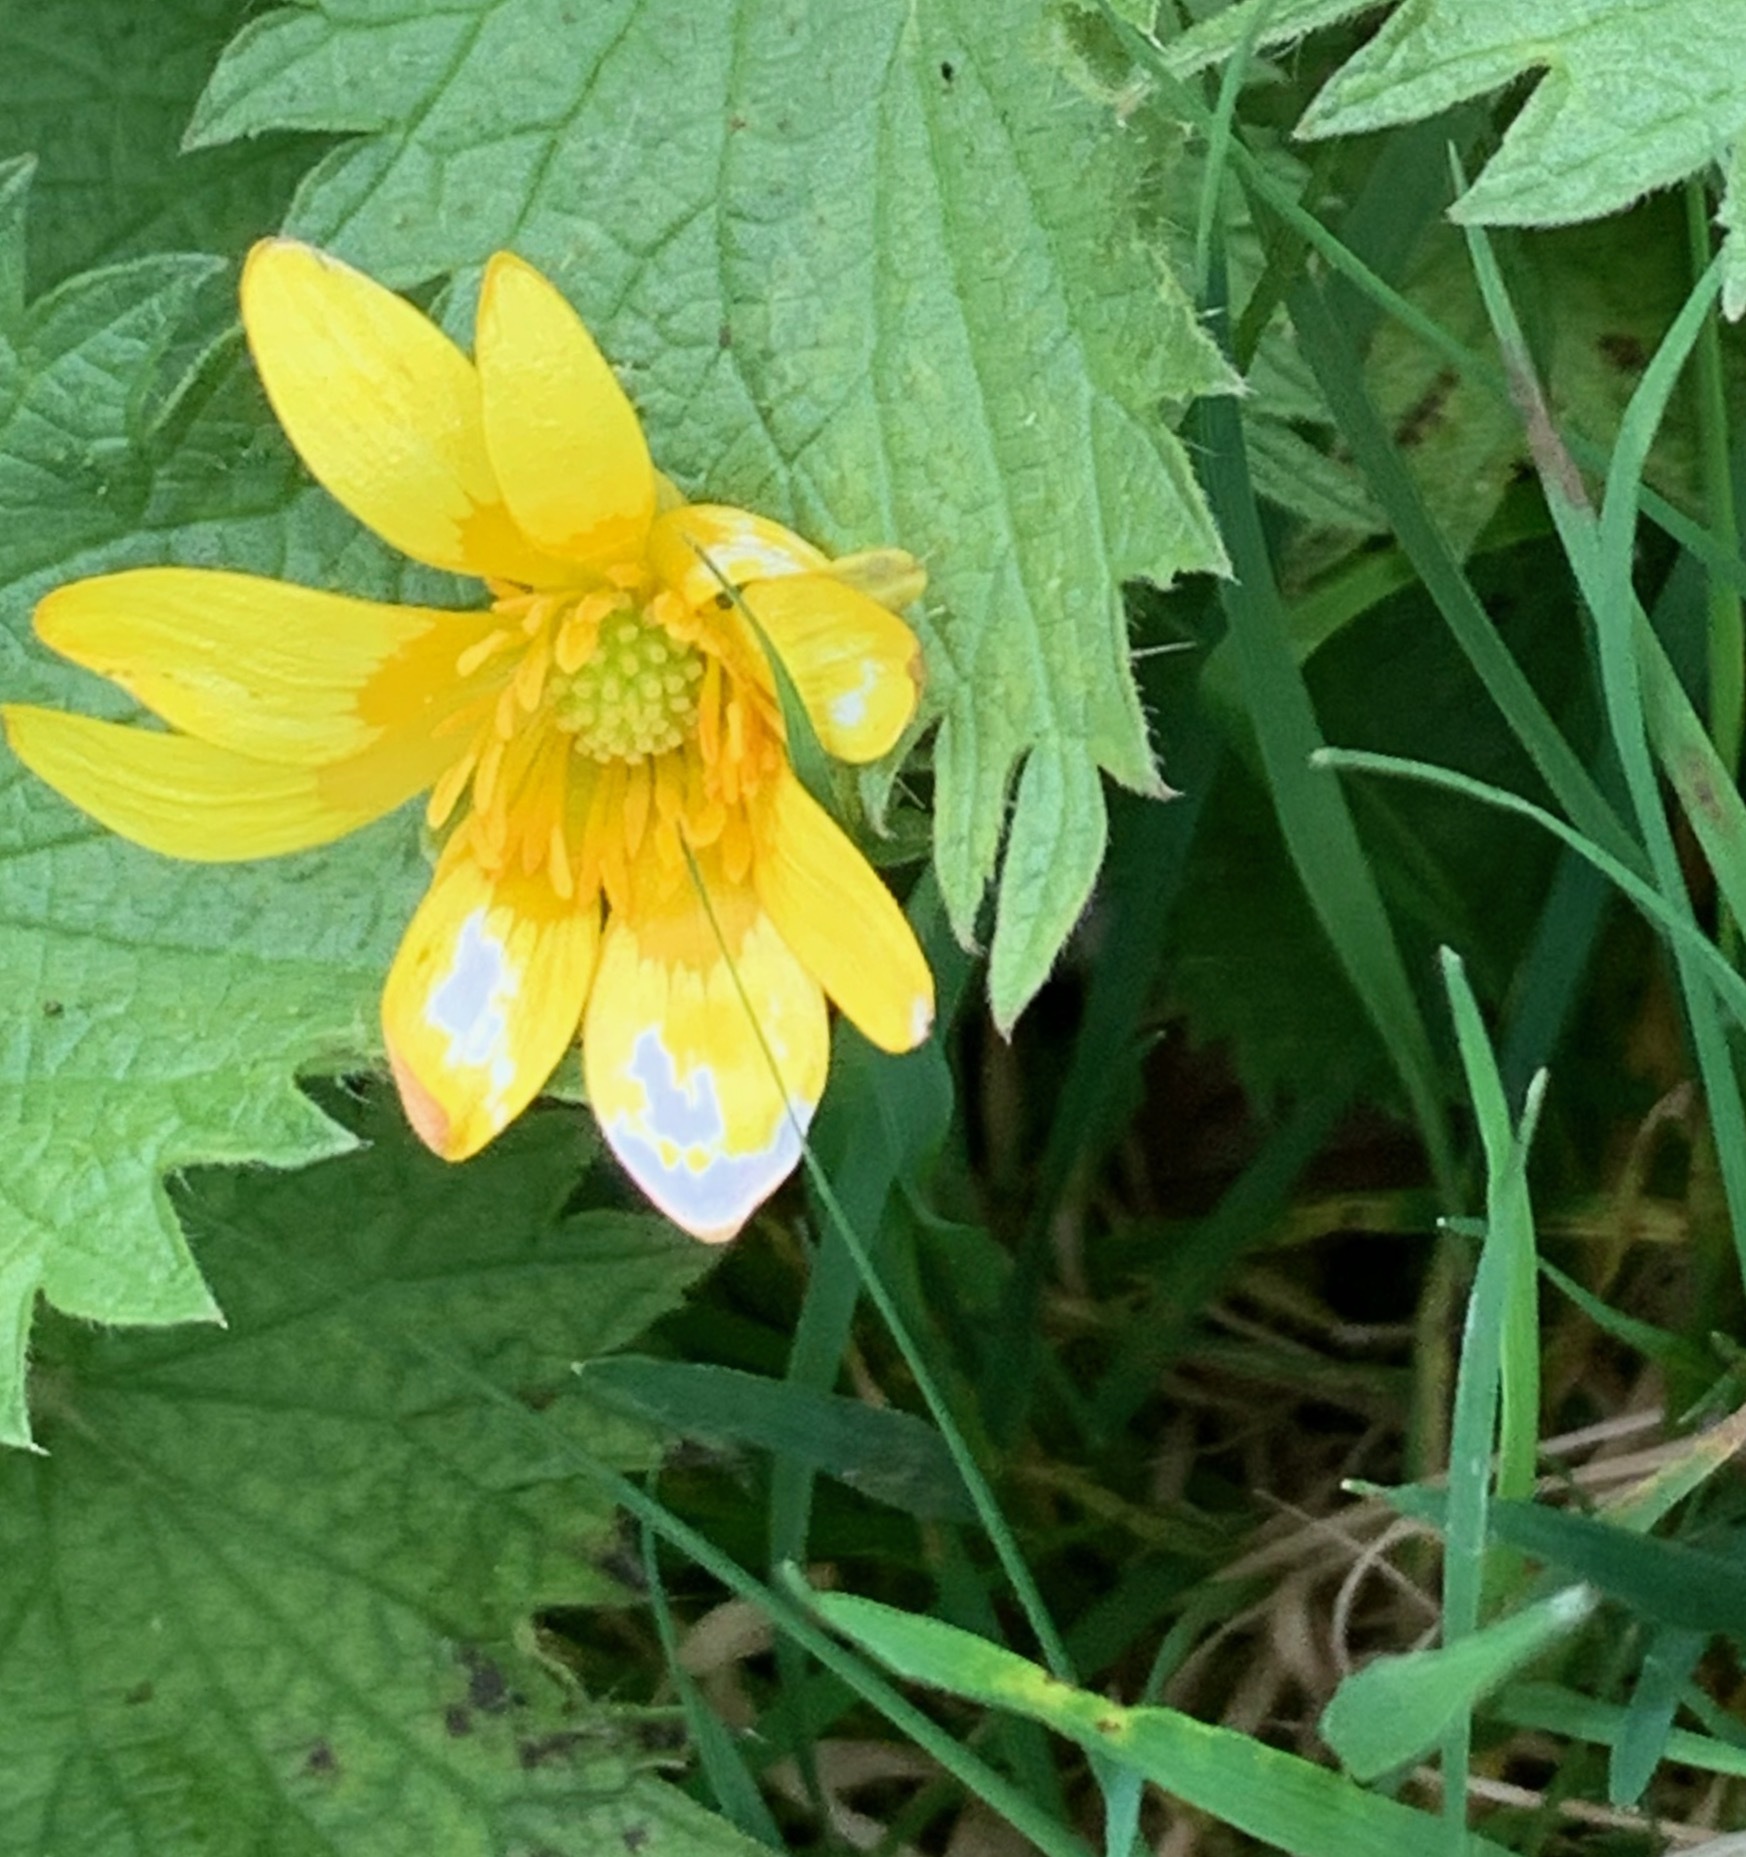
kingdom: Plantae
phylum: Tracheophyta
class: Magnoliopsida
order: Ranunculales
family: Ranunculaceae
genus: Ficaria
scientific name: Ficaria verna
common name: Lesser celandine
